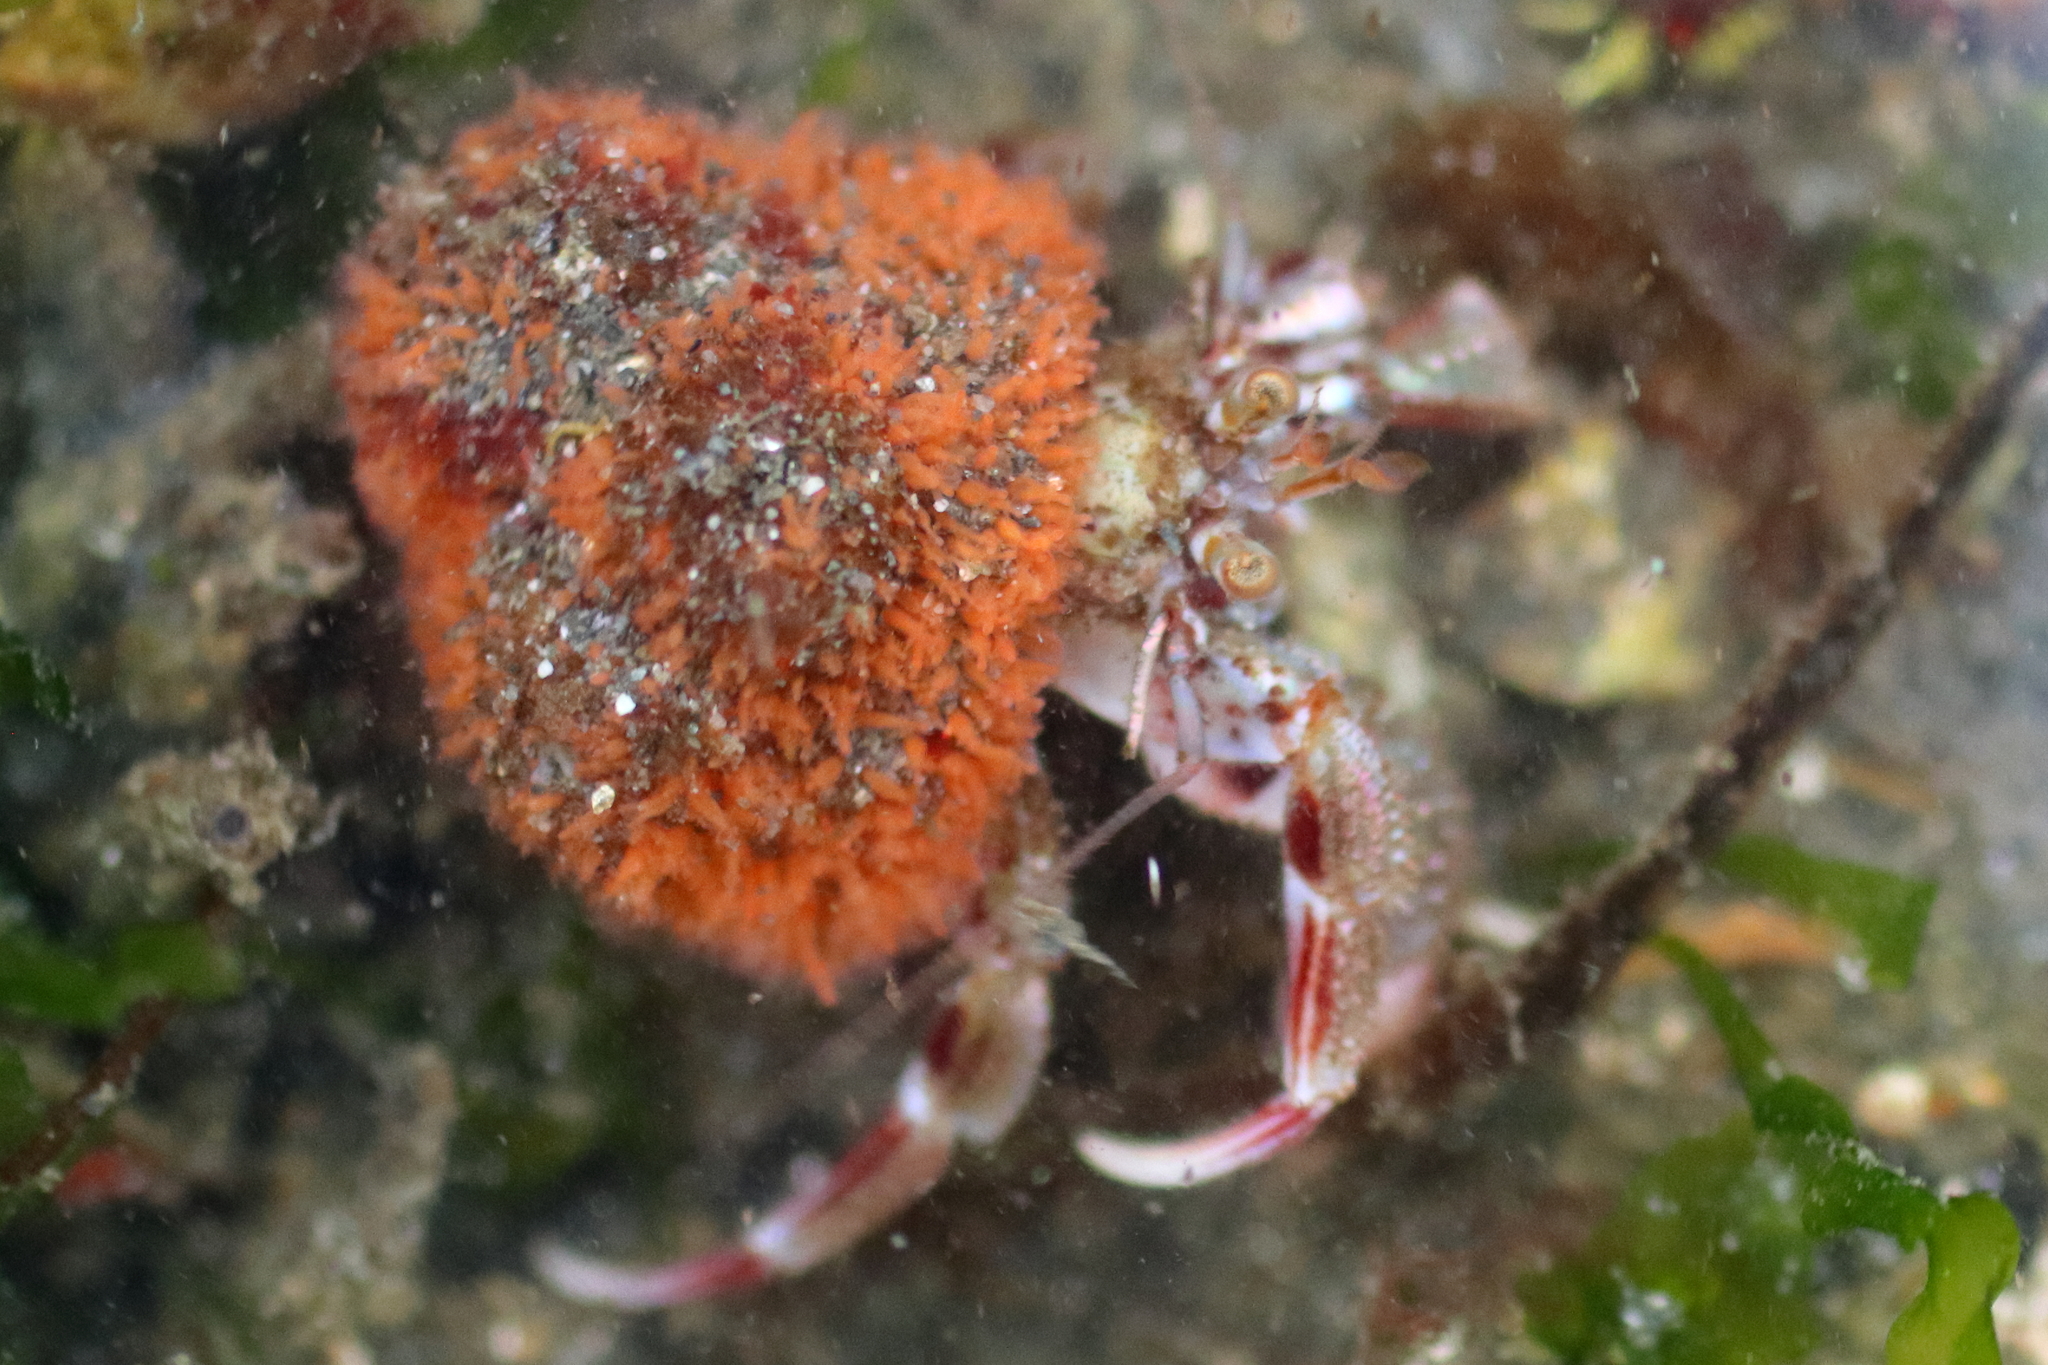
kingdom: Animalia
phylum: Arthropoda
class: Malacostraca
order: Decapoda
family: Paguridae
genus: Pagurus
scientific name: Pagurus ochotensis
